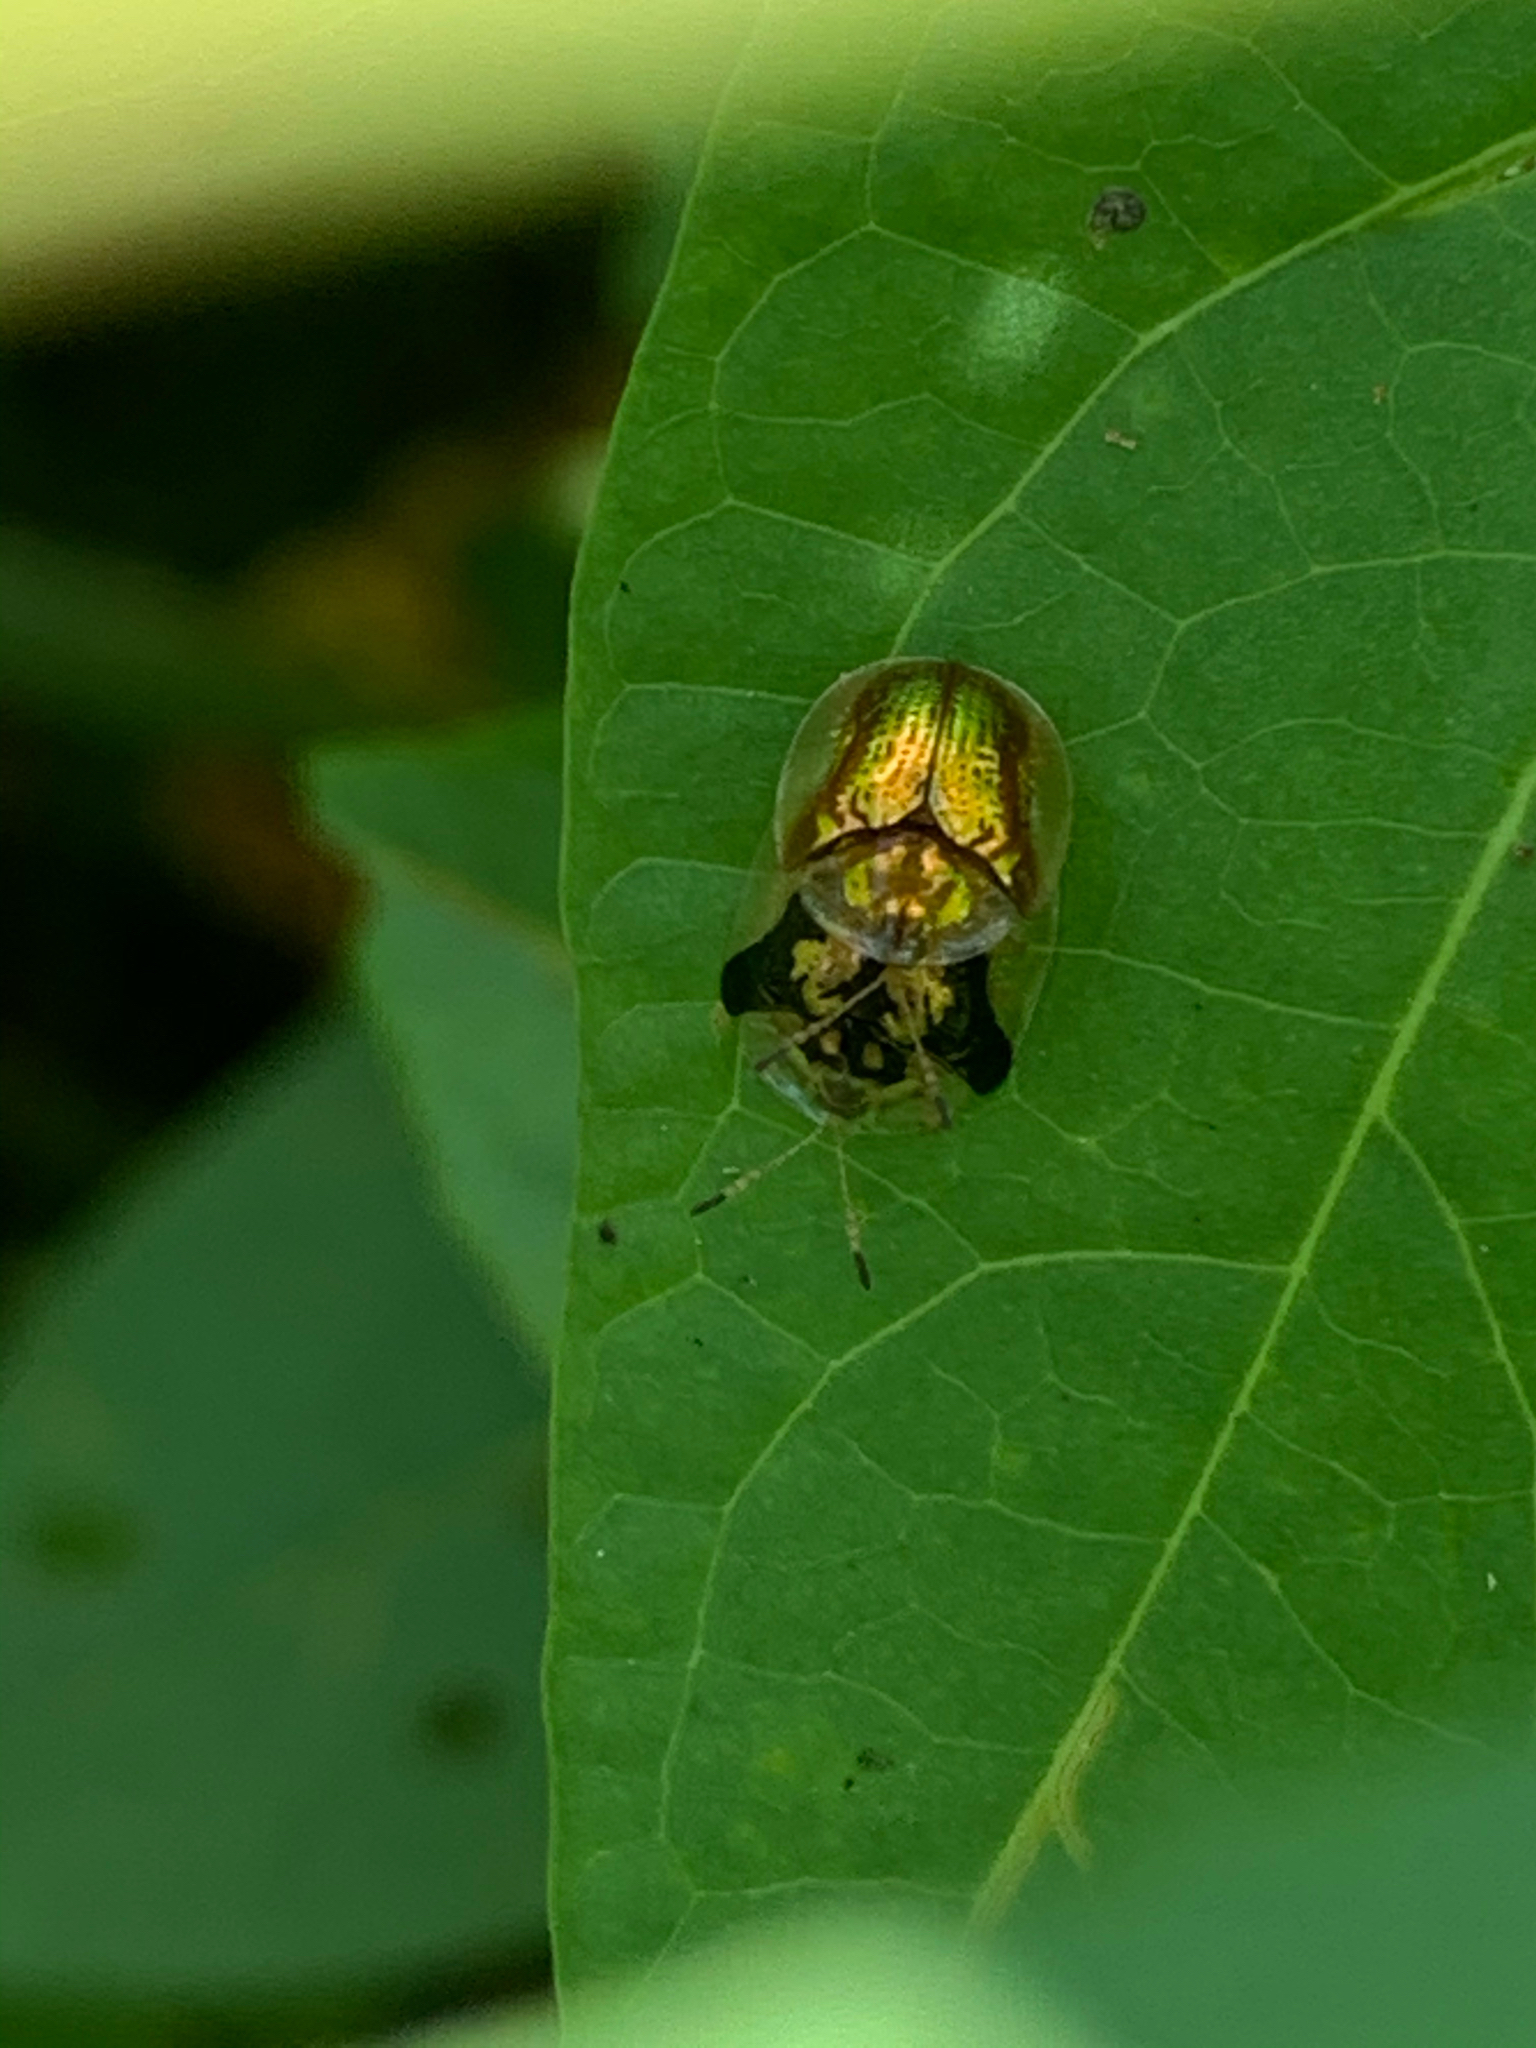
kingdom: Animalia
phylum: Arthropoda
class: Insecta
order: Coleoptera
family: Chrysomelidae
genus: Deloyala
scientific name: Deloyala guttata
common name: Mottled tortoise beetle
